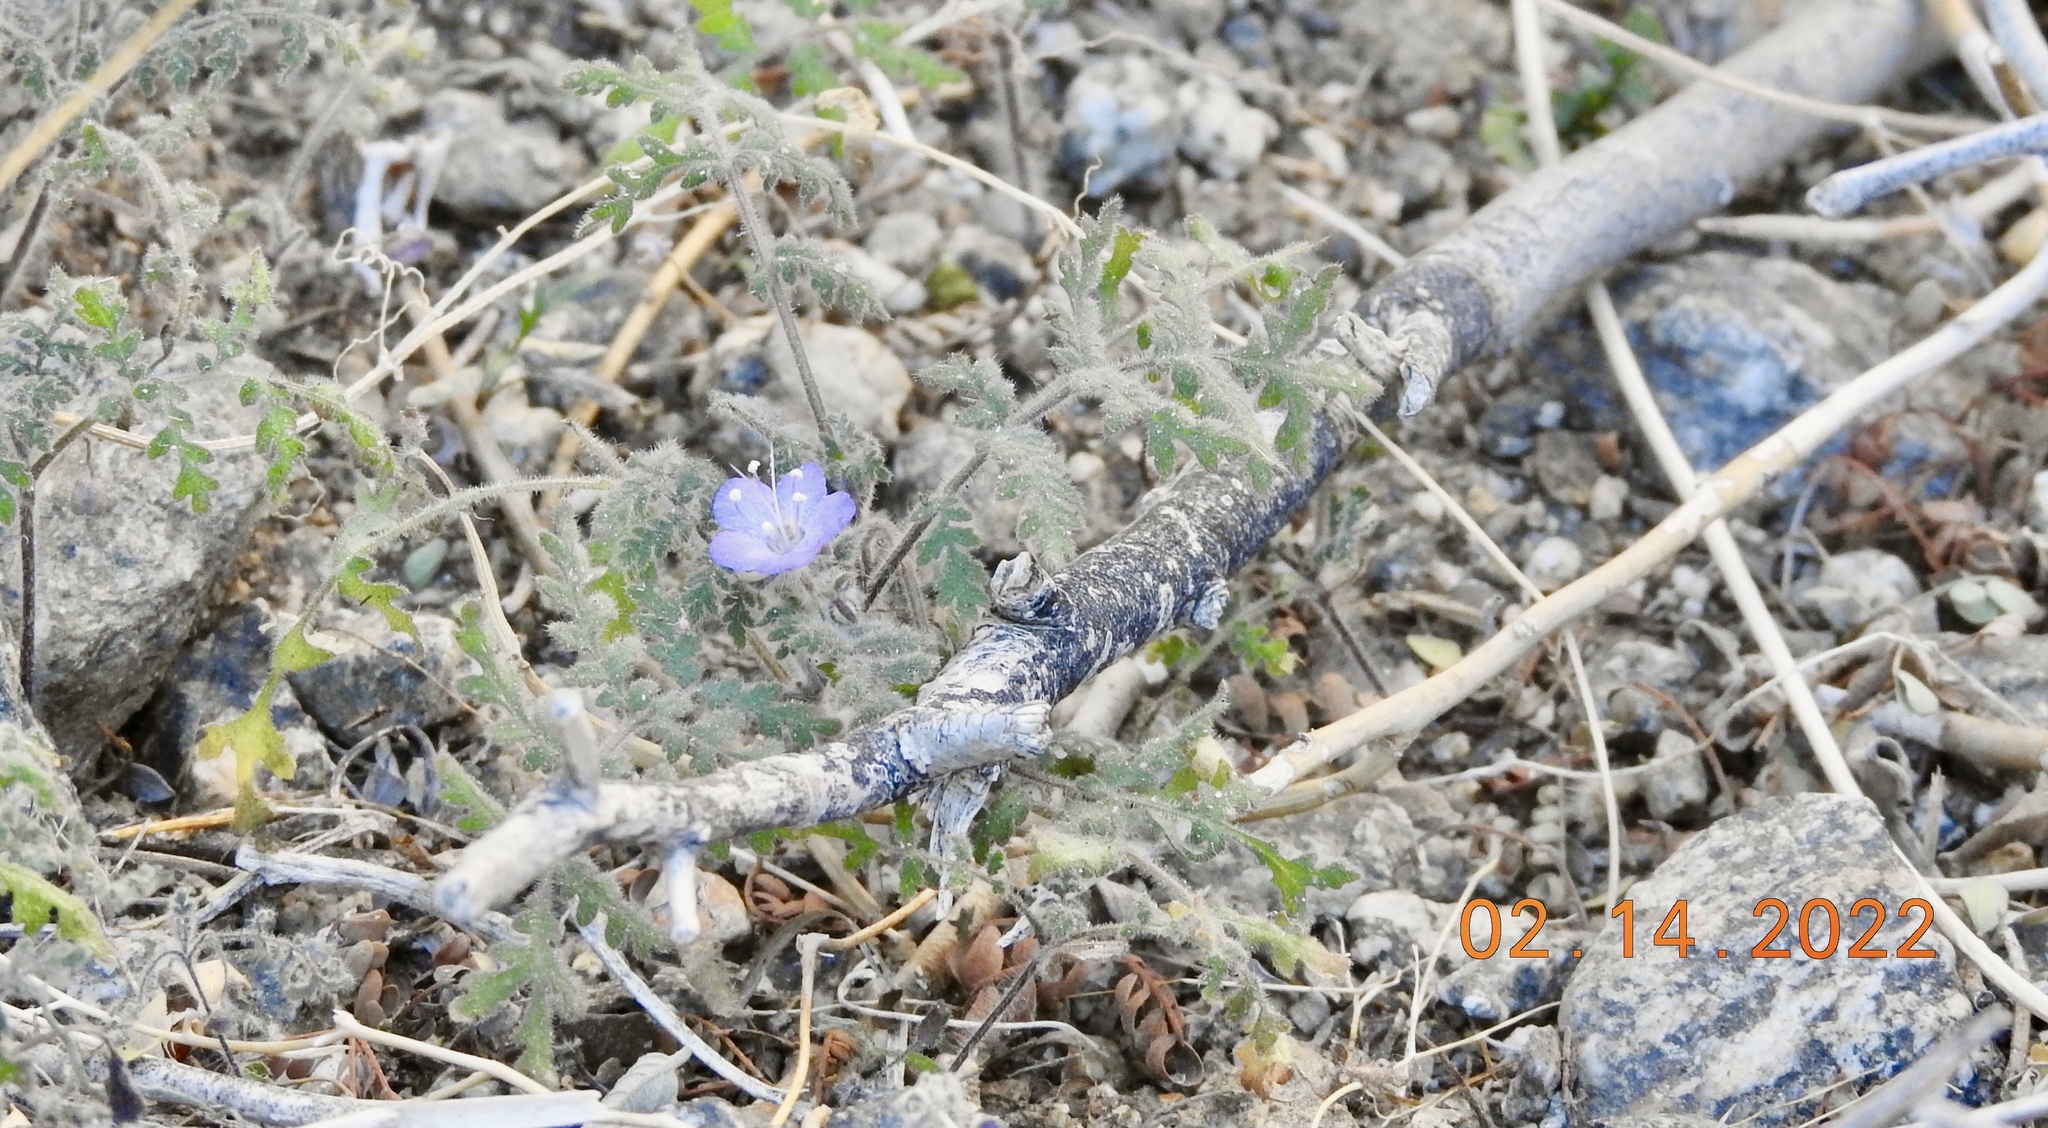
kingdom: Plantae
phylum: Tracheophyta
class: Magnoliopsida
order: Boraginales
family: Hydrophyllaceae
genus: Phacelia
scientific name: Phacelia distans
